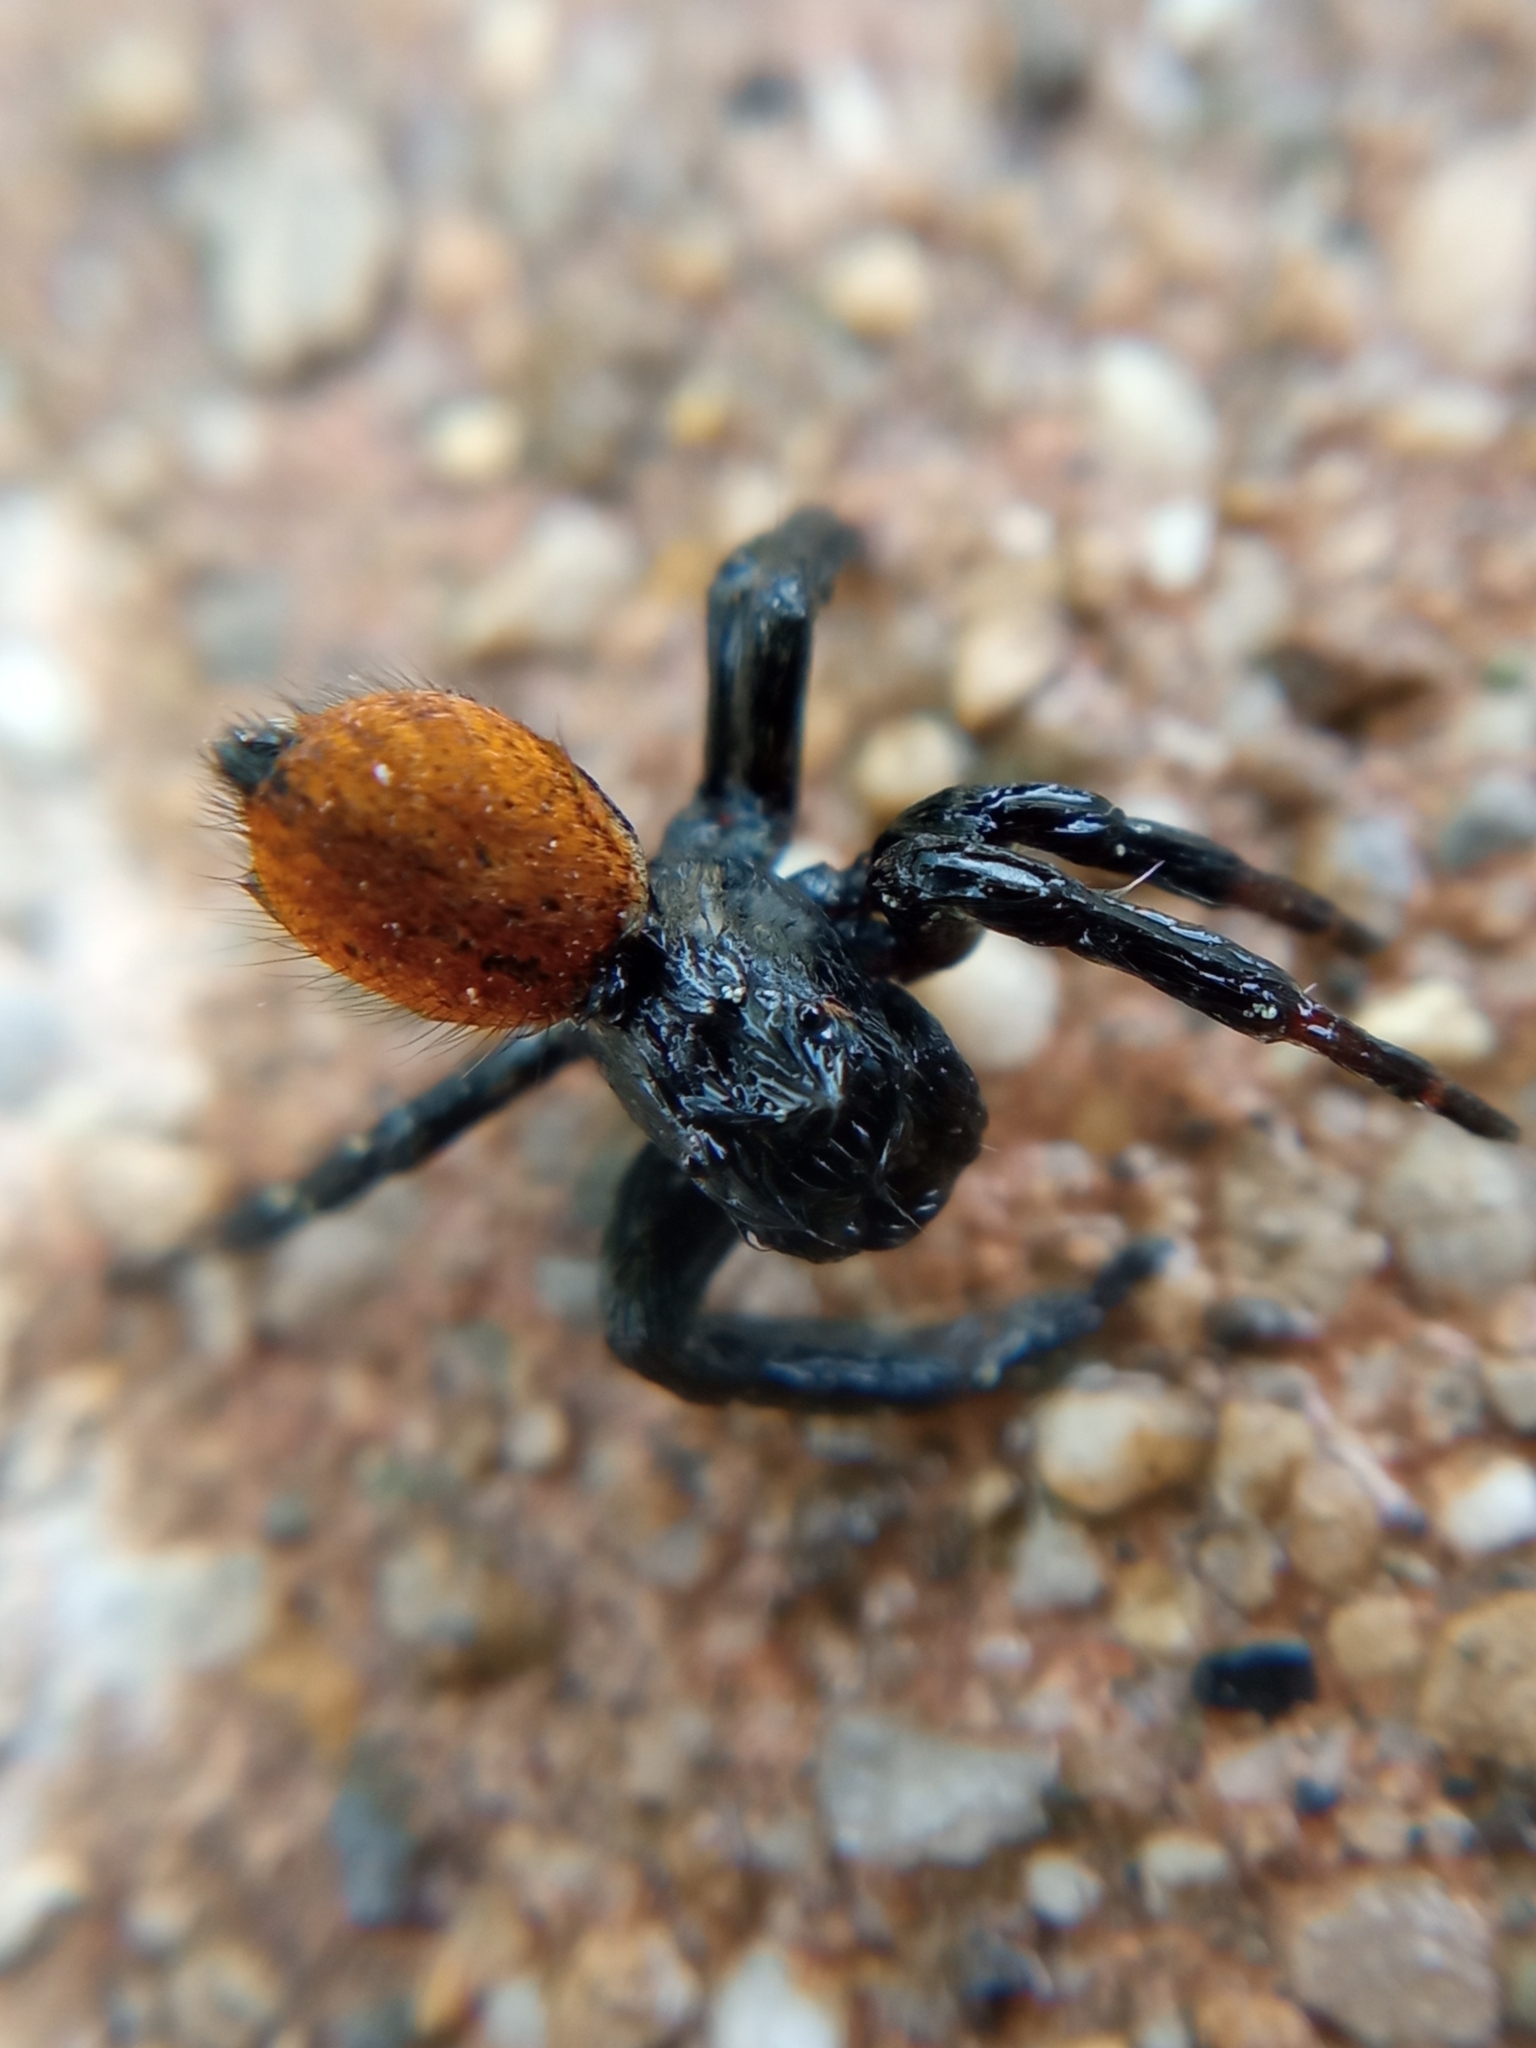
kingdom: Animalia
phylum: Arthropoda
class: Arachnida
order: Araneae
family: Salticidae
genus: Carrhotus
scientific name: Carrhotus xanthogramma
